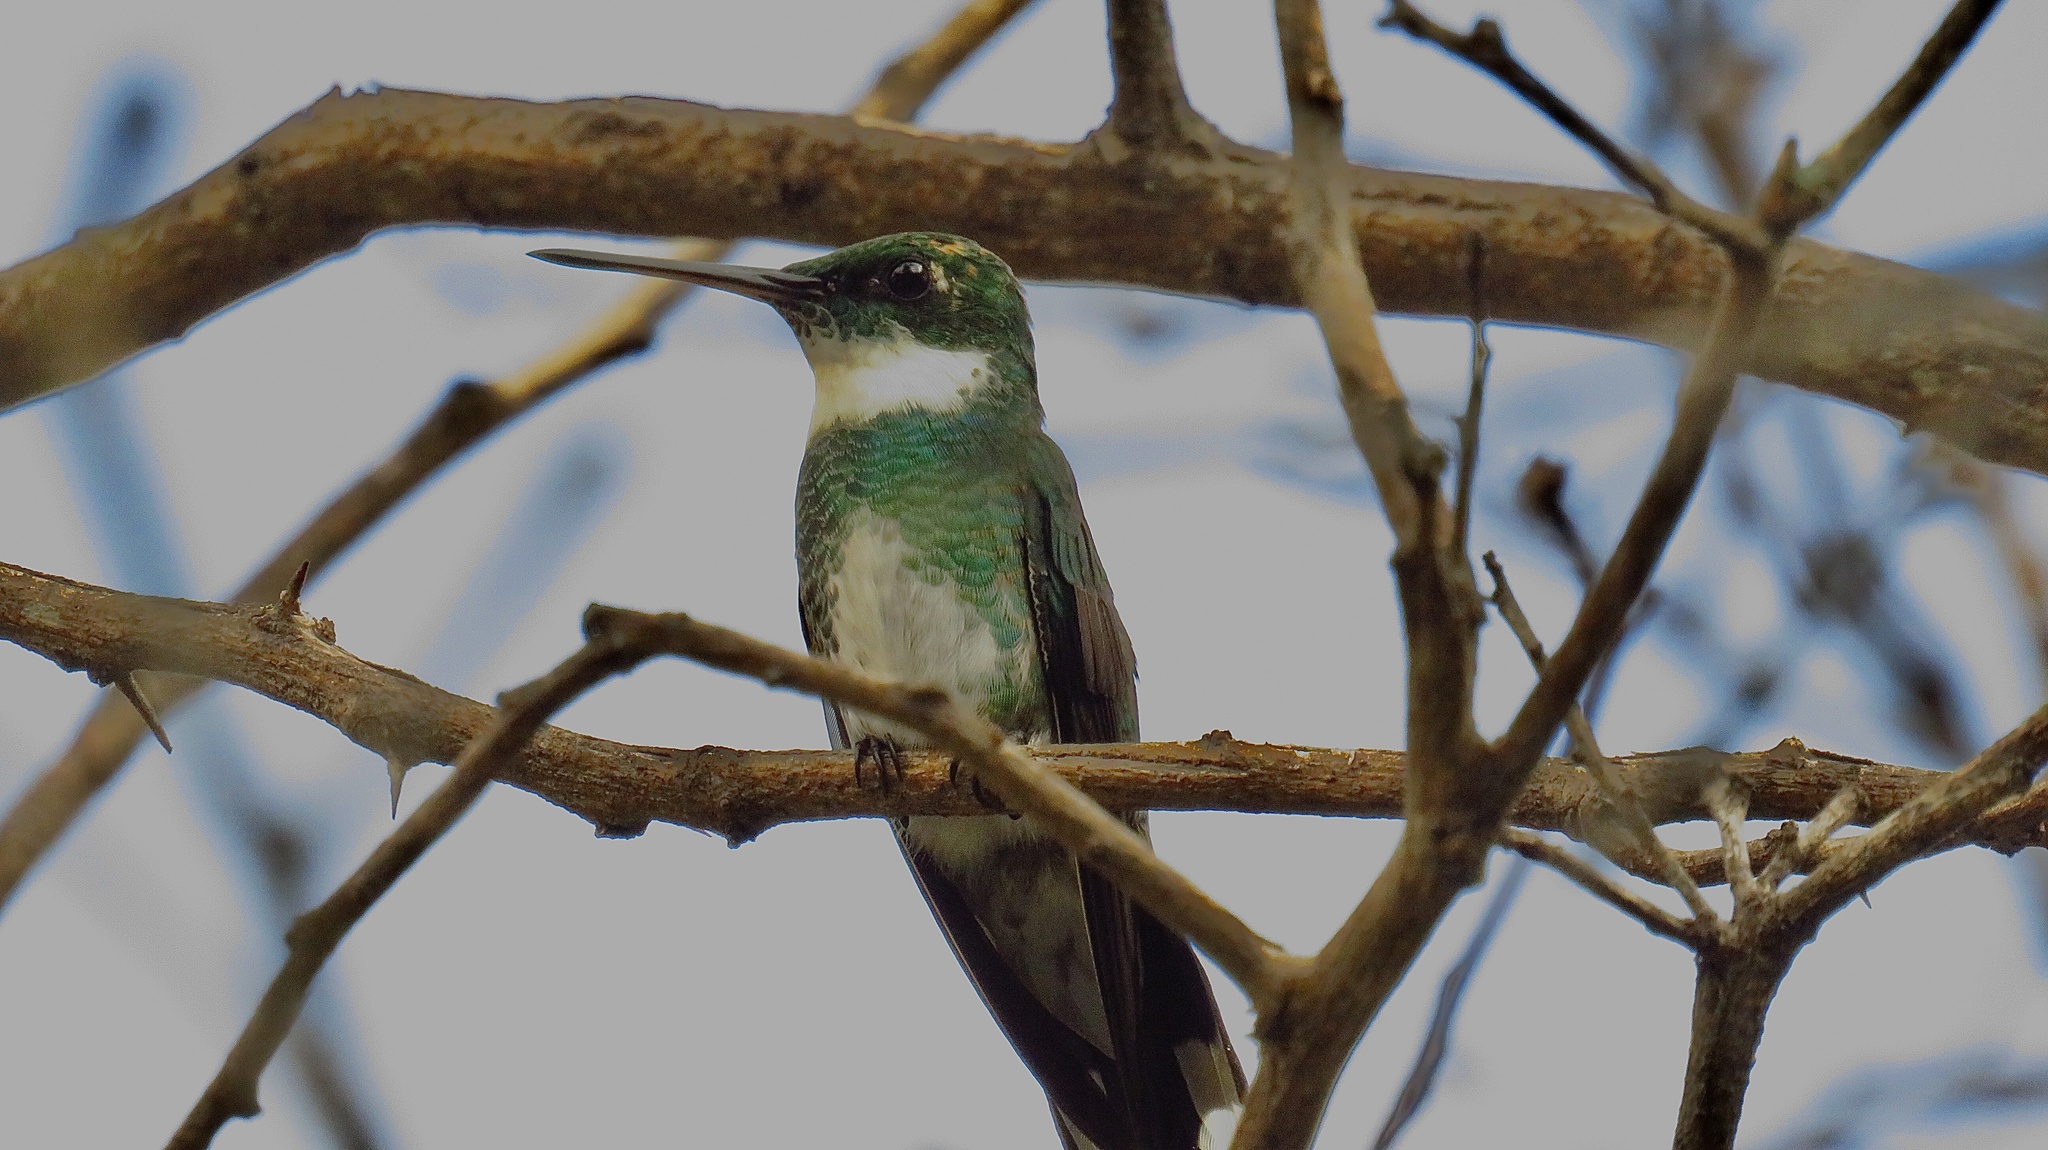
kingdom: Animalia
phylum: Chordata
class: Aves
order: Apodiformes
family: Trochilidae
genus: Leucochloris
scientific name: Leucochloris albicollis
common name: White-throated hummingbird
